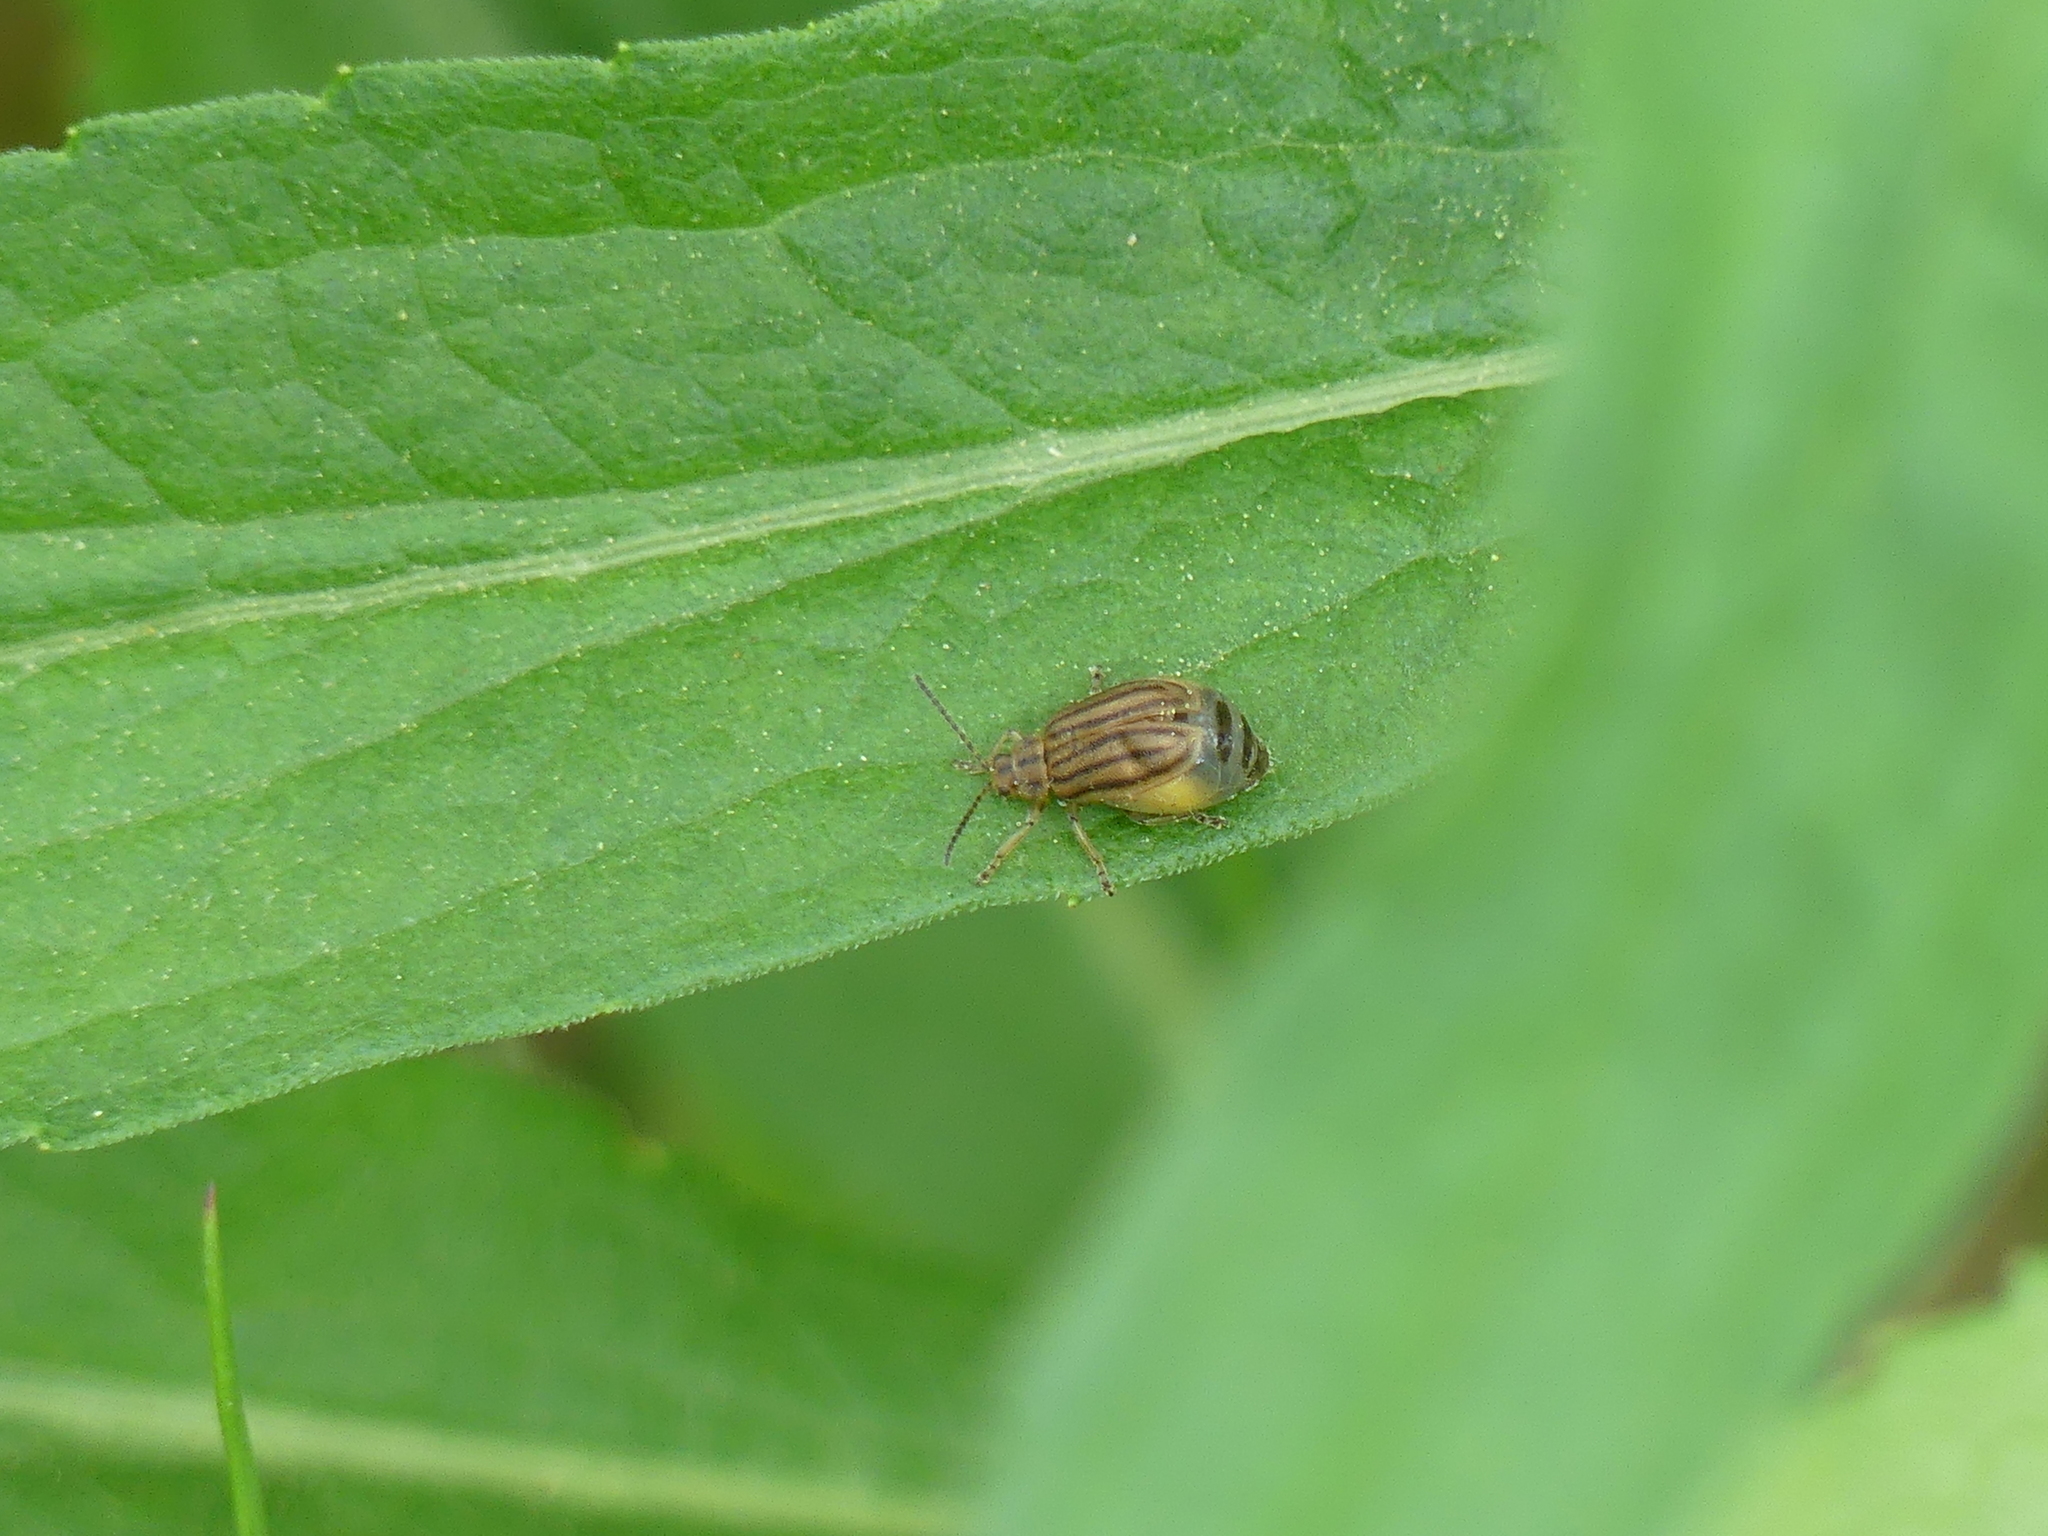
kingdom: Animalia
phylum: Arthropoda
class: Insecta
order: Coleoptera
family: Chrysomelidae
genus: Ophraella
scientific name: Ophraella conferta
